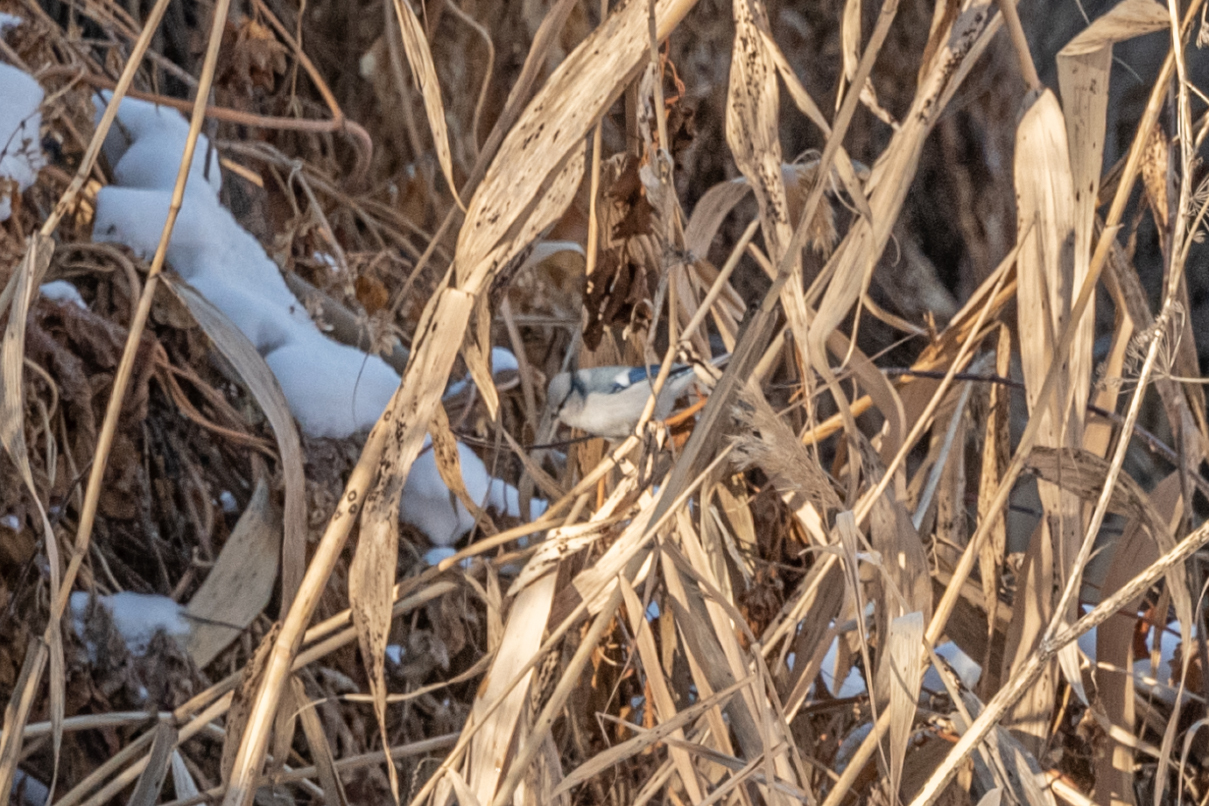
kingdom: Animalia
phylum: Chordata
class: Aves
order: Passeriformes
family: Paridae
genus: Cyanistes
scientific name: Cyanistes cyanus
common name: Azure tit
